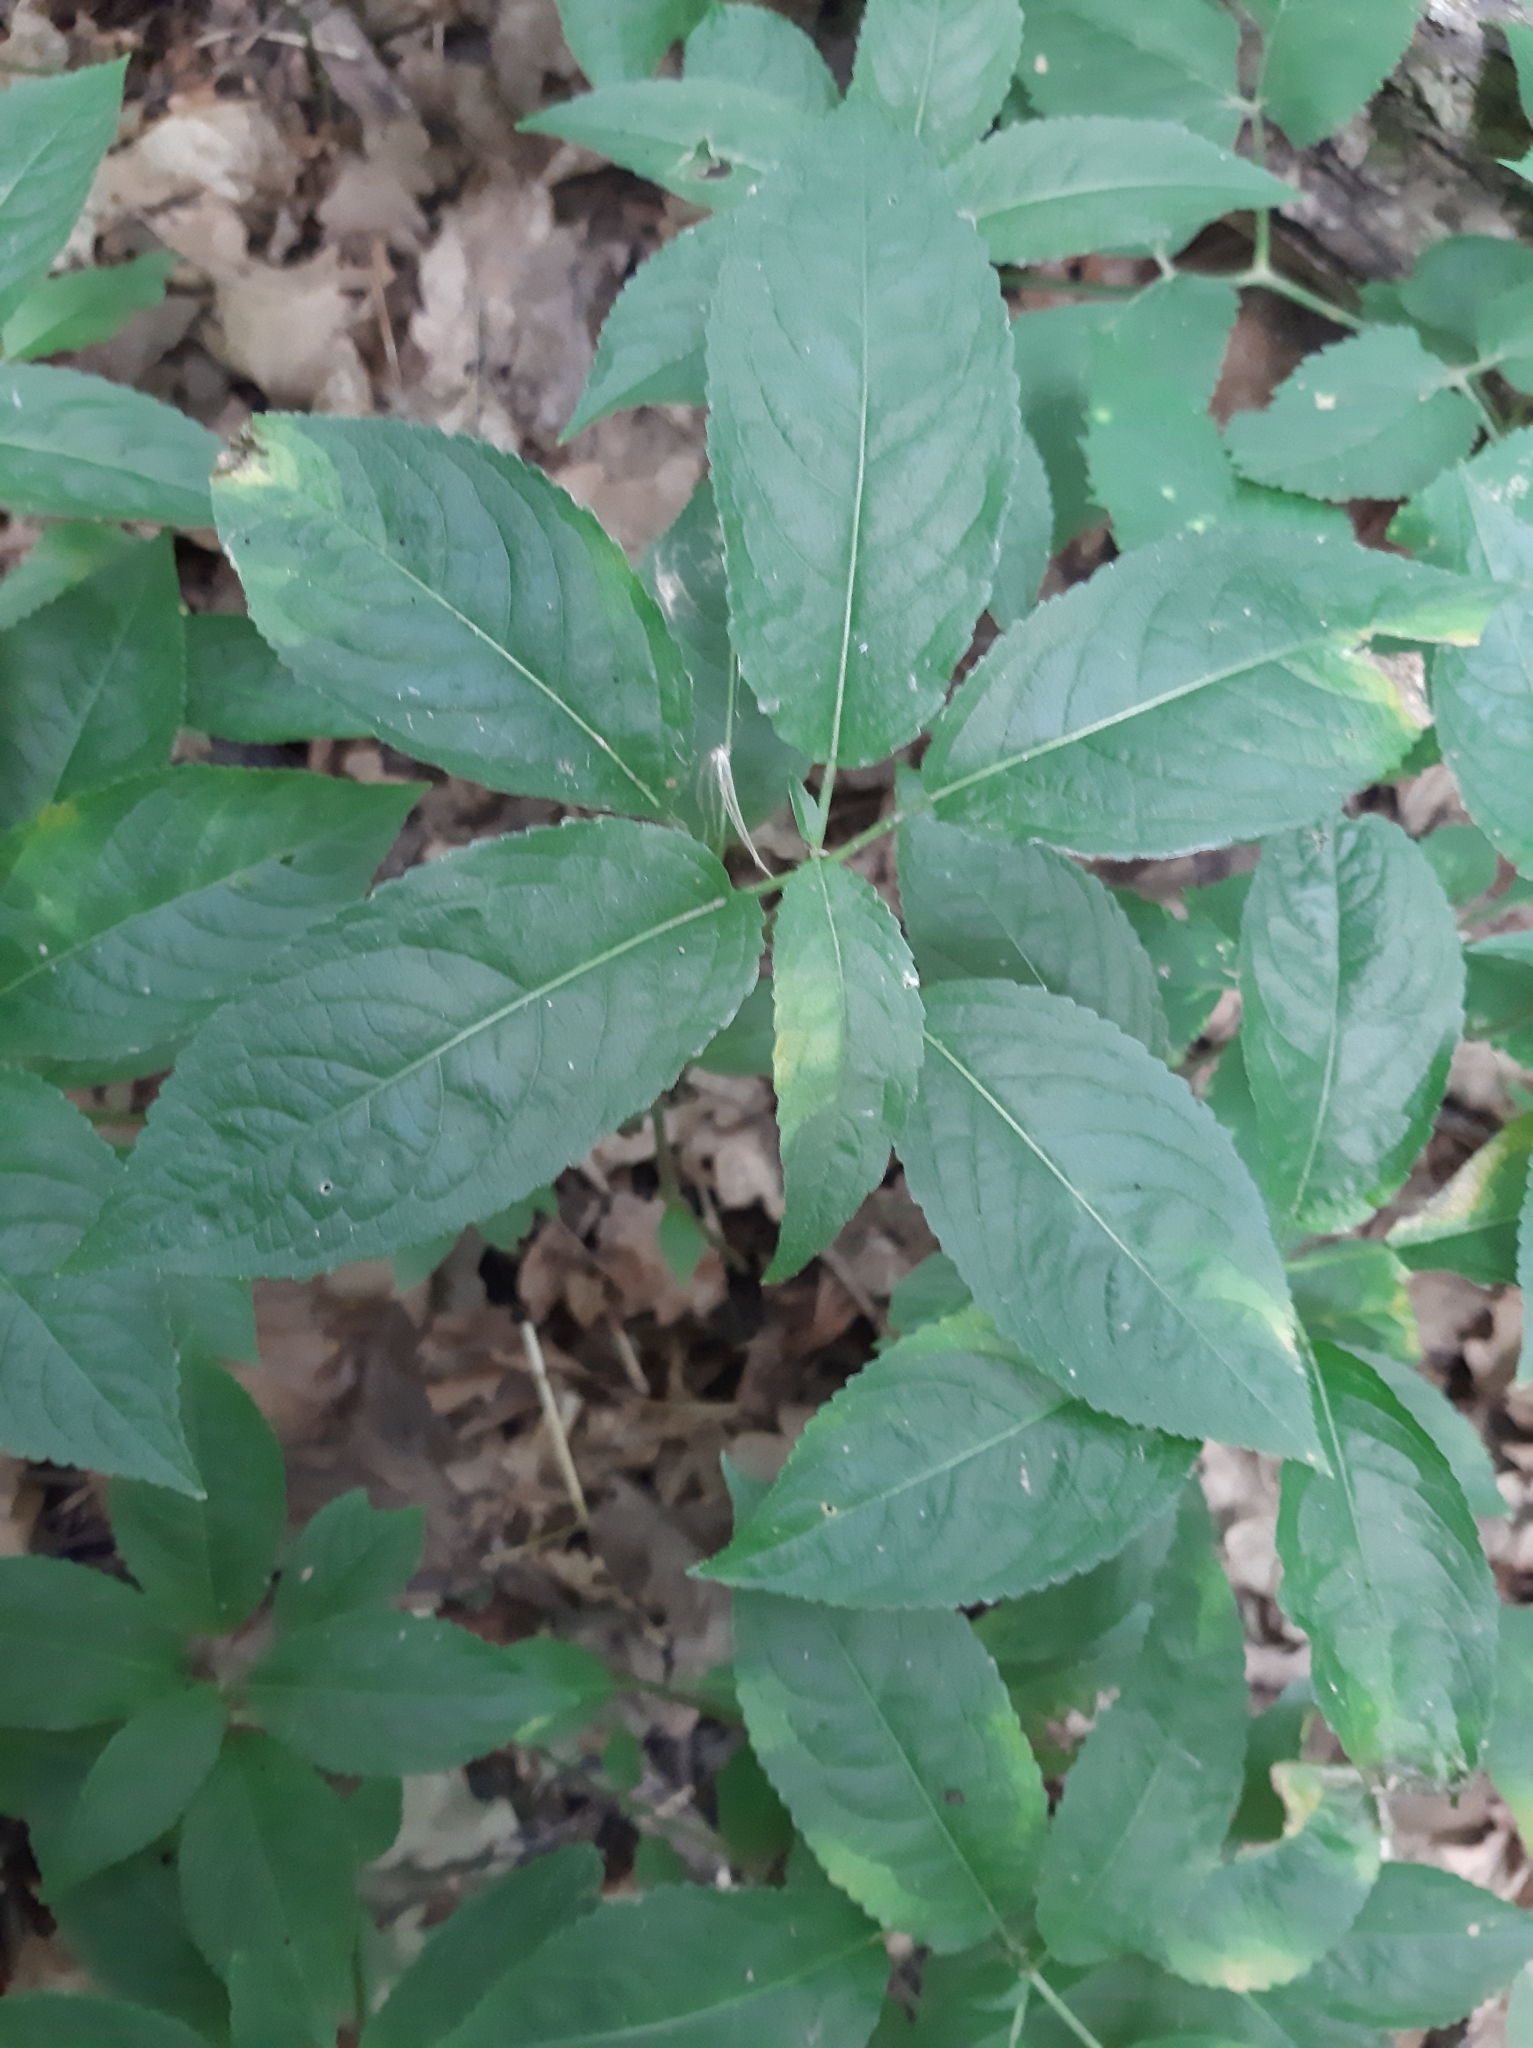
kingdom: Plantae
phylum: Tracheophyta
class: Magnoliopsida
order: Malpighiales
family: Euphorbiaceae
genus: Mercurialis
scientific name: Mercurialis perennis
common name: Dog mercury
